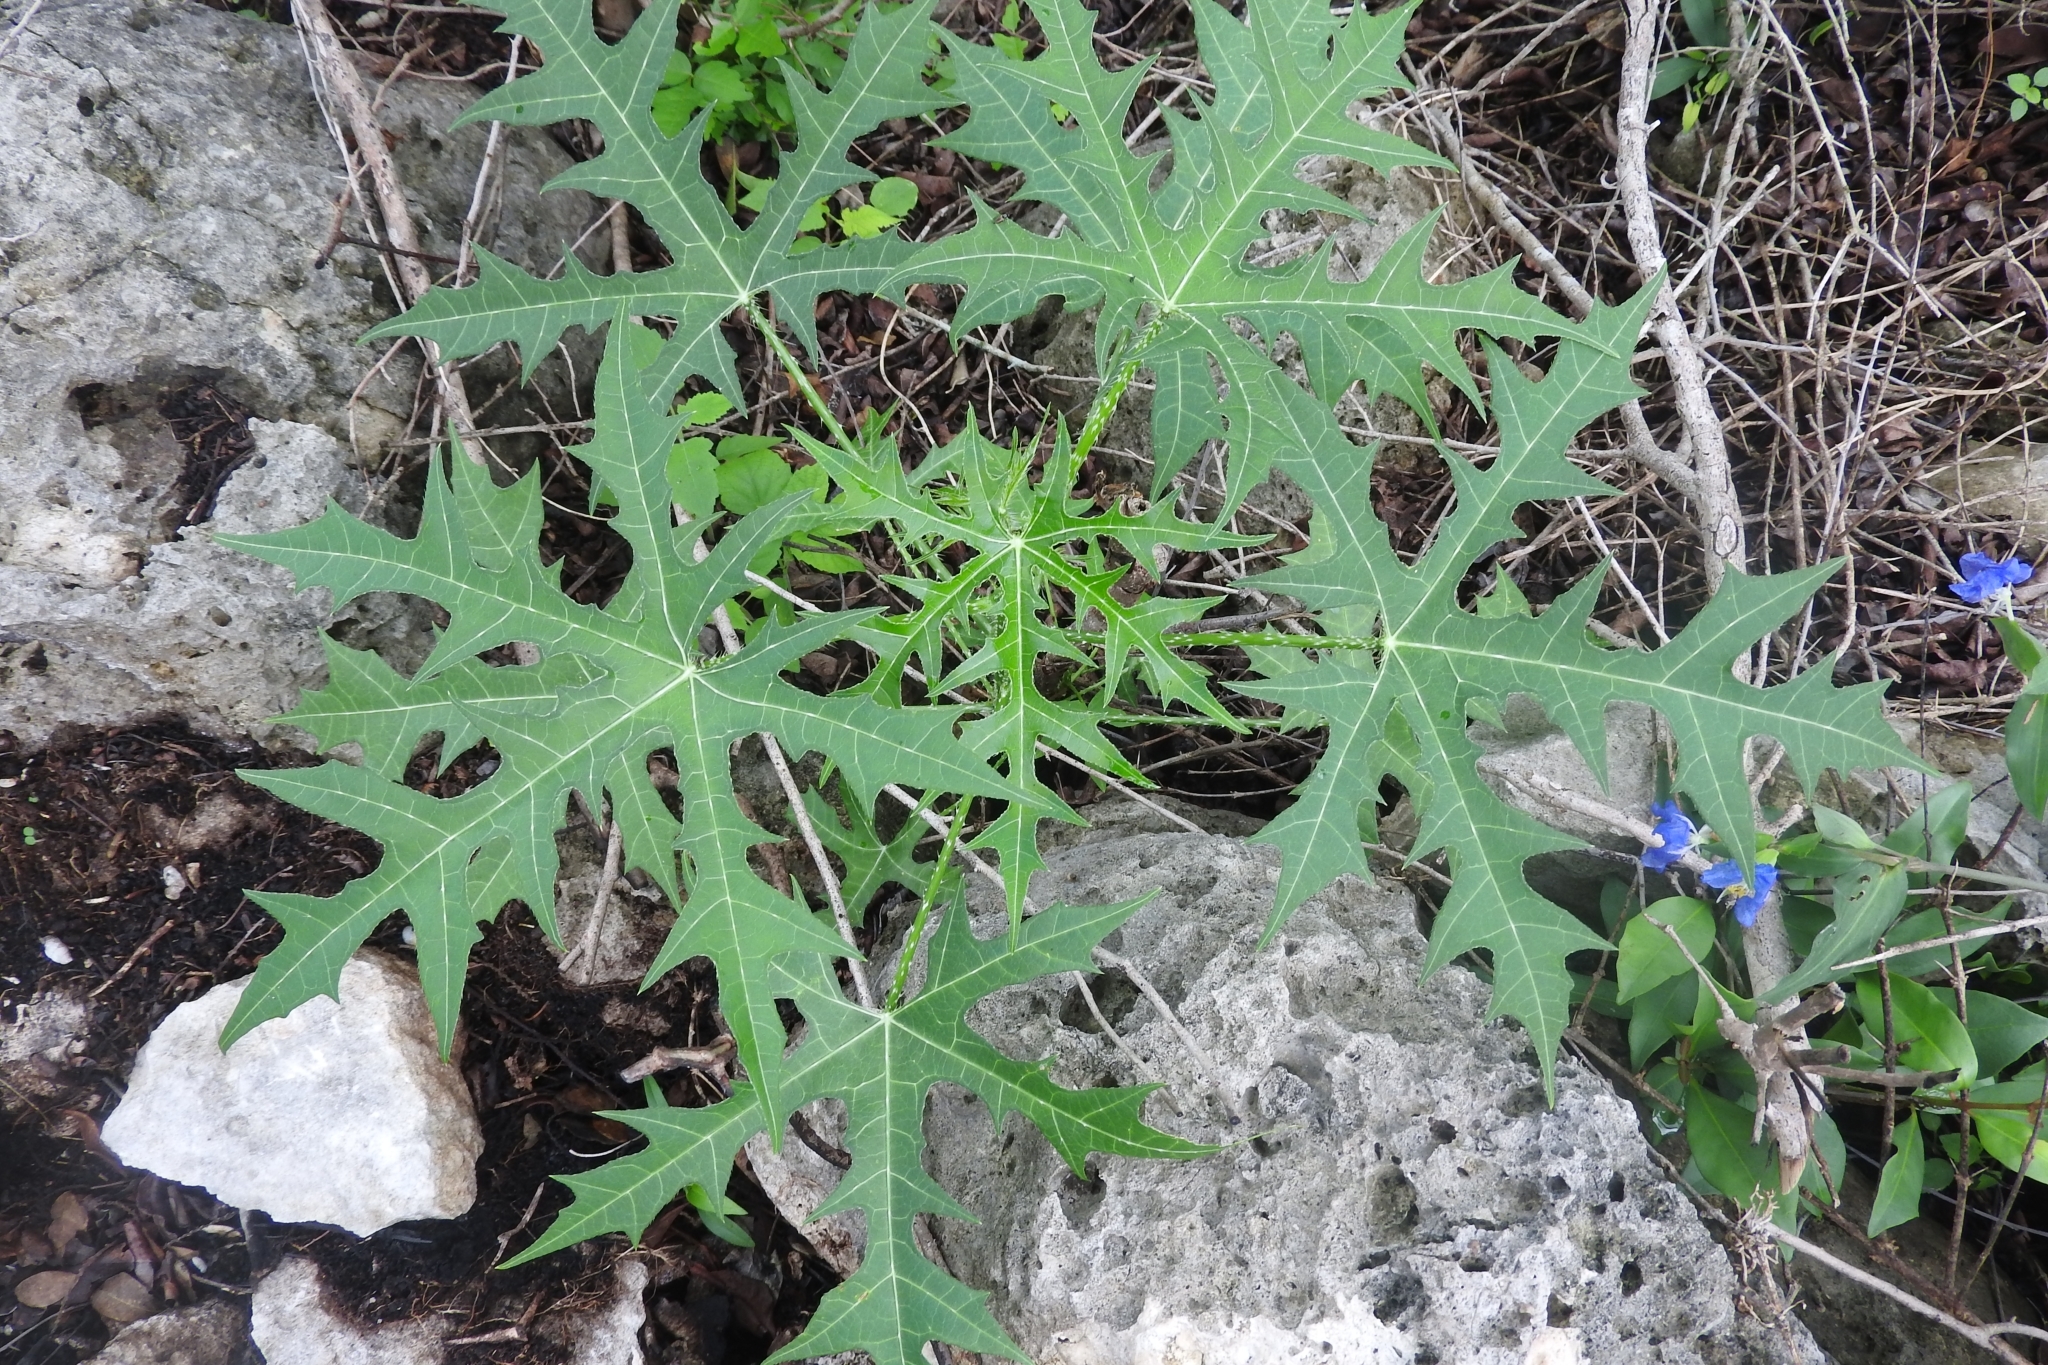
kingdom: Plantae
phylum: Tracheophyta
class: Magnoliopsida
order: Malpighiales
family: Euphorbiaceae
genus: Cnidoscolus
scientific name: Cnidoscolus aconitifolius
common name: Cabbage-star
